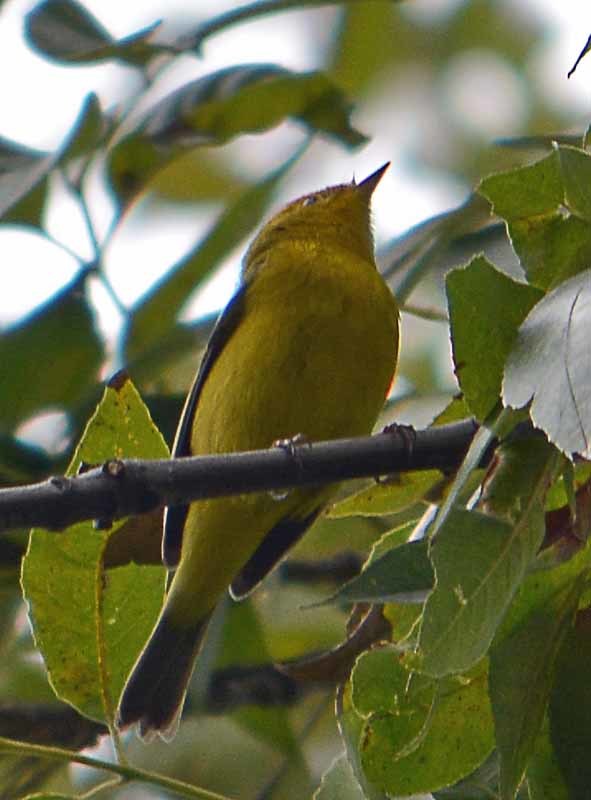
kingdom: Animalia
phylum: Chordata
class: Aves
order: Passeriformes
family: Parulidae
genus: Cardellina
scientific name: Cardellina pusilla
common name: Wilson's warbler
